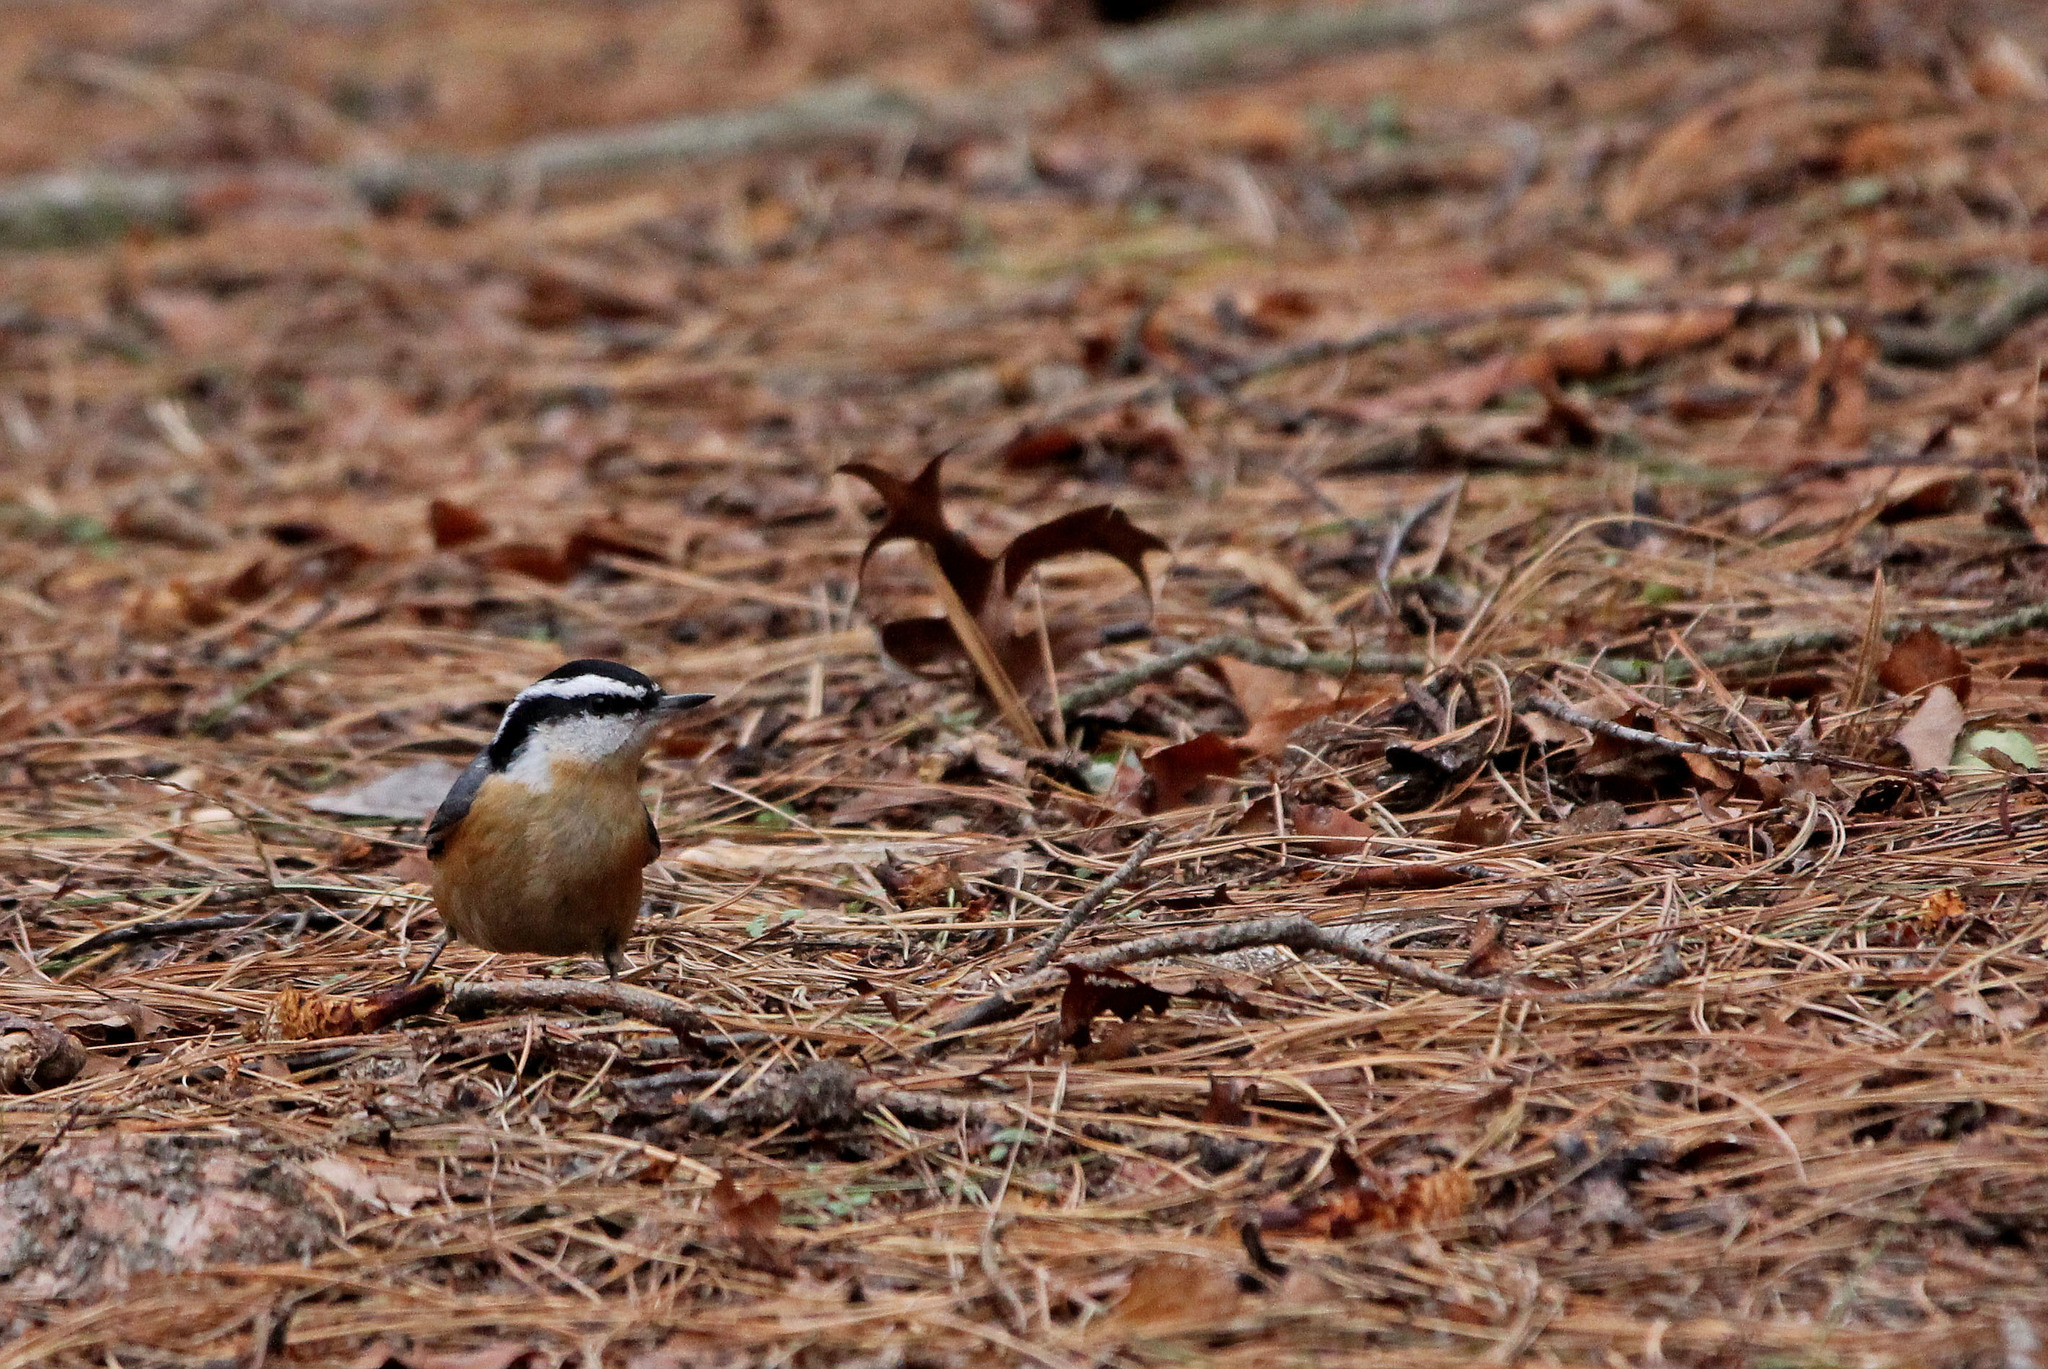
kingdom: Animalia
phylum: Chordata
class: Aves
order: Passeriformes
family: Sittidae
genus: Sitta
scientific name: Sitta canadensis
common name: Red-breasted nuthatch
